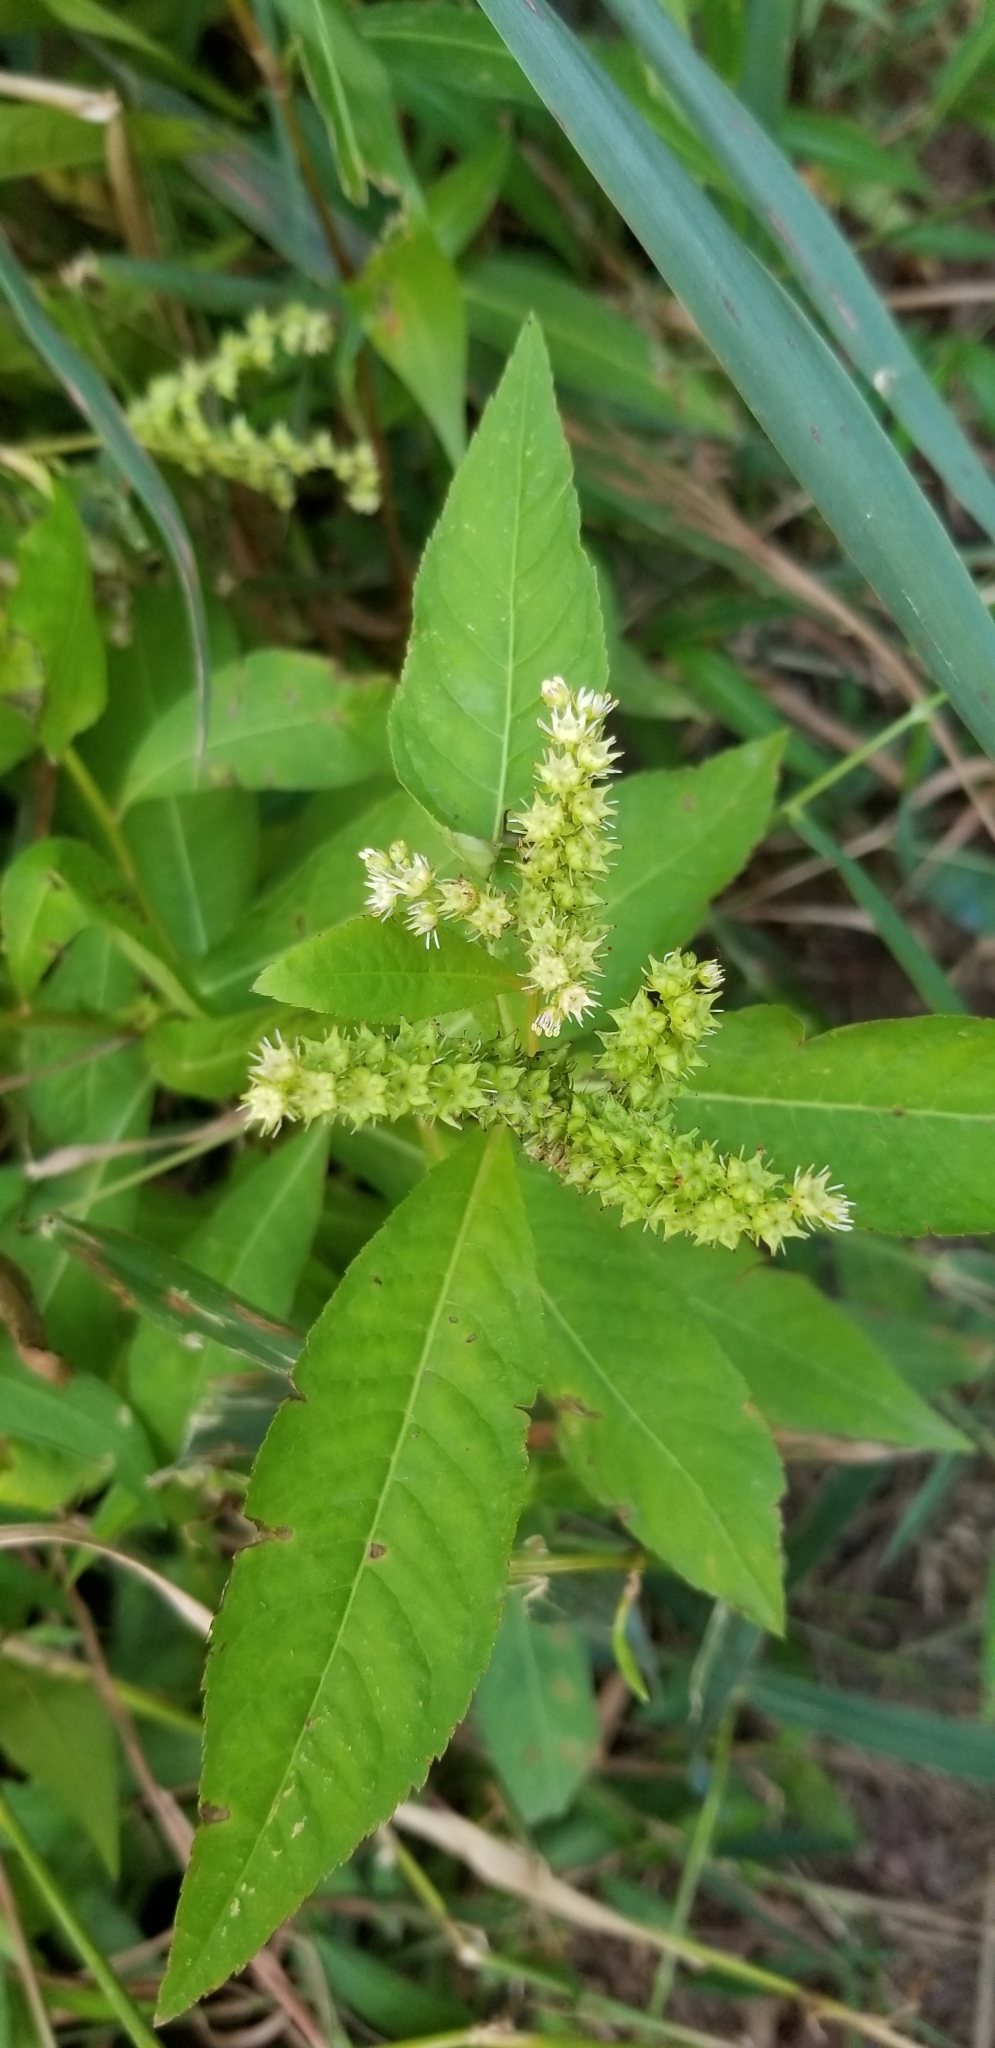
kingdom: Plantae
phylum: Tracheophyta
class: Magnoliopsida
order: Saxifragales
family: Penthoraceae
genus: Penthorum
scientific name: Penthorum sedoides
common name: Ditch stonecrop
